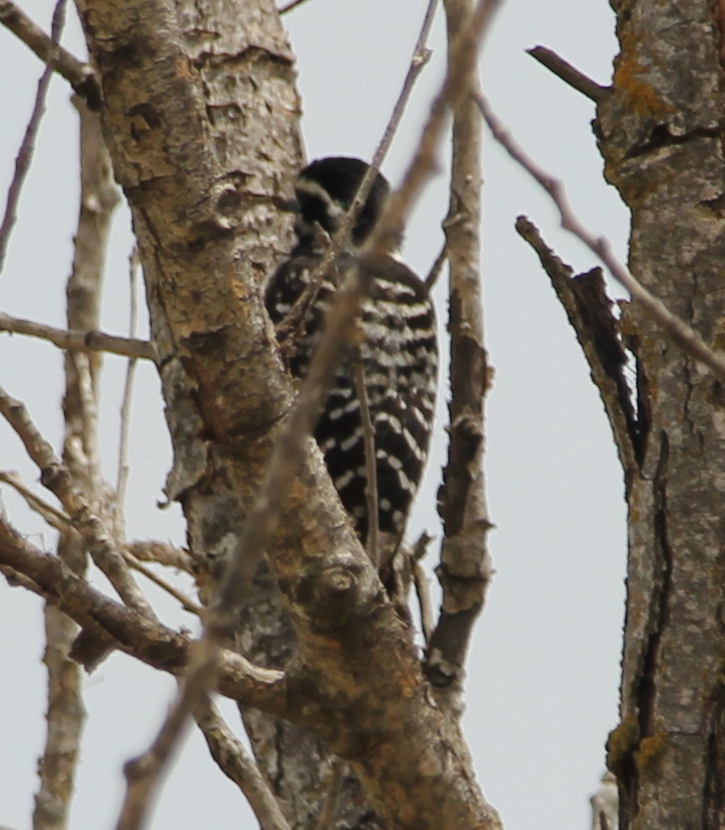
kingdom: Animalia
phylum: Chordata
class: Aves
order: Piciformes
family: Picidae
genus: Dryobates
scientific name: Dryobates nuttallii
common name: Nuttall's woodpecker
